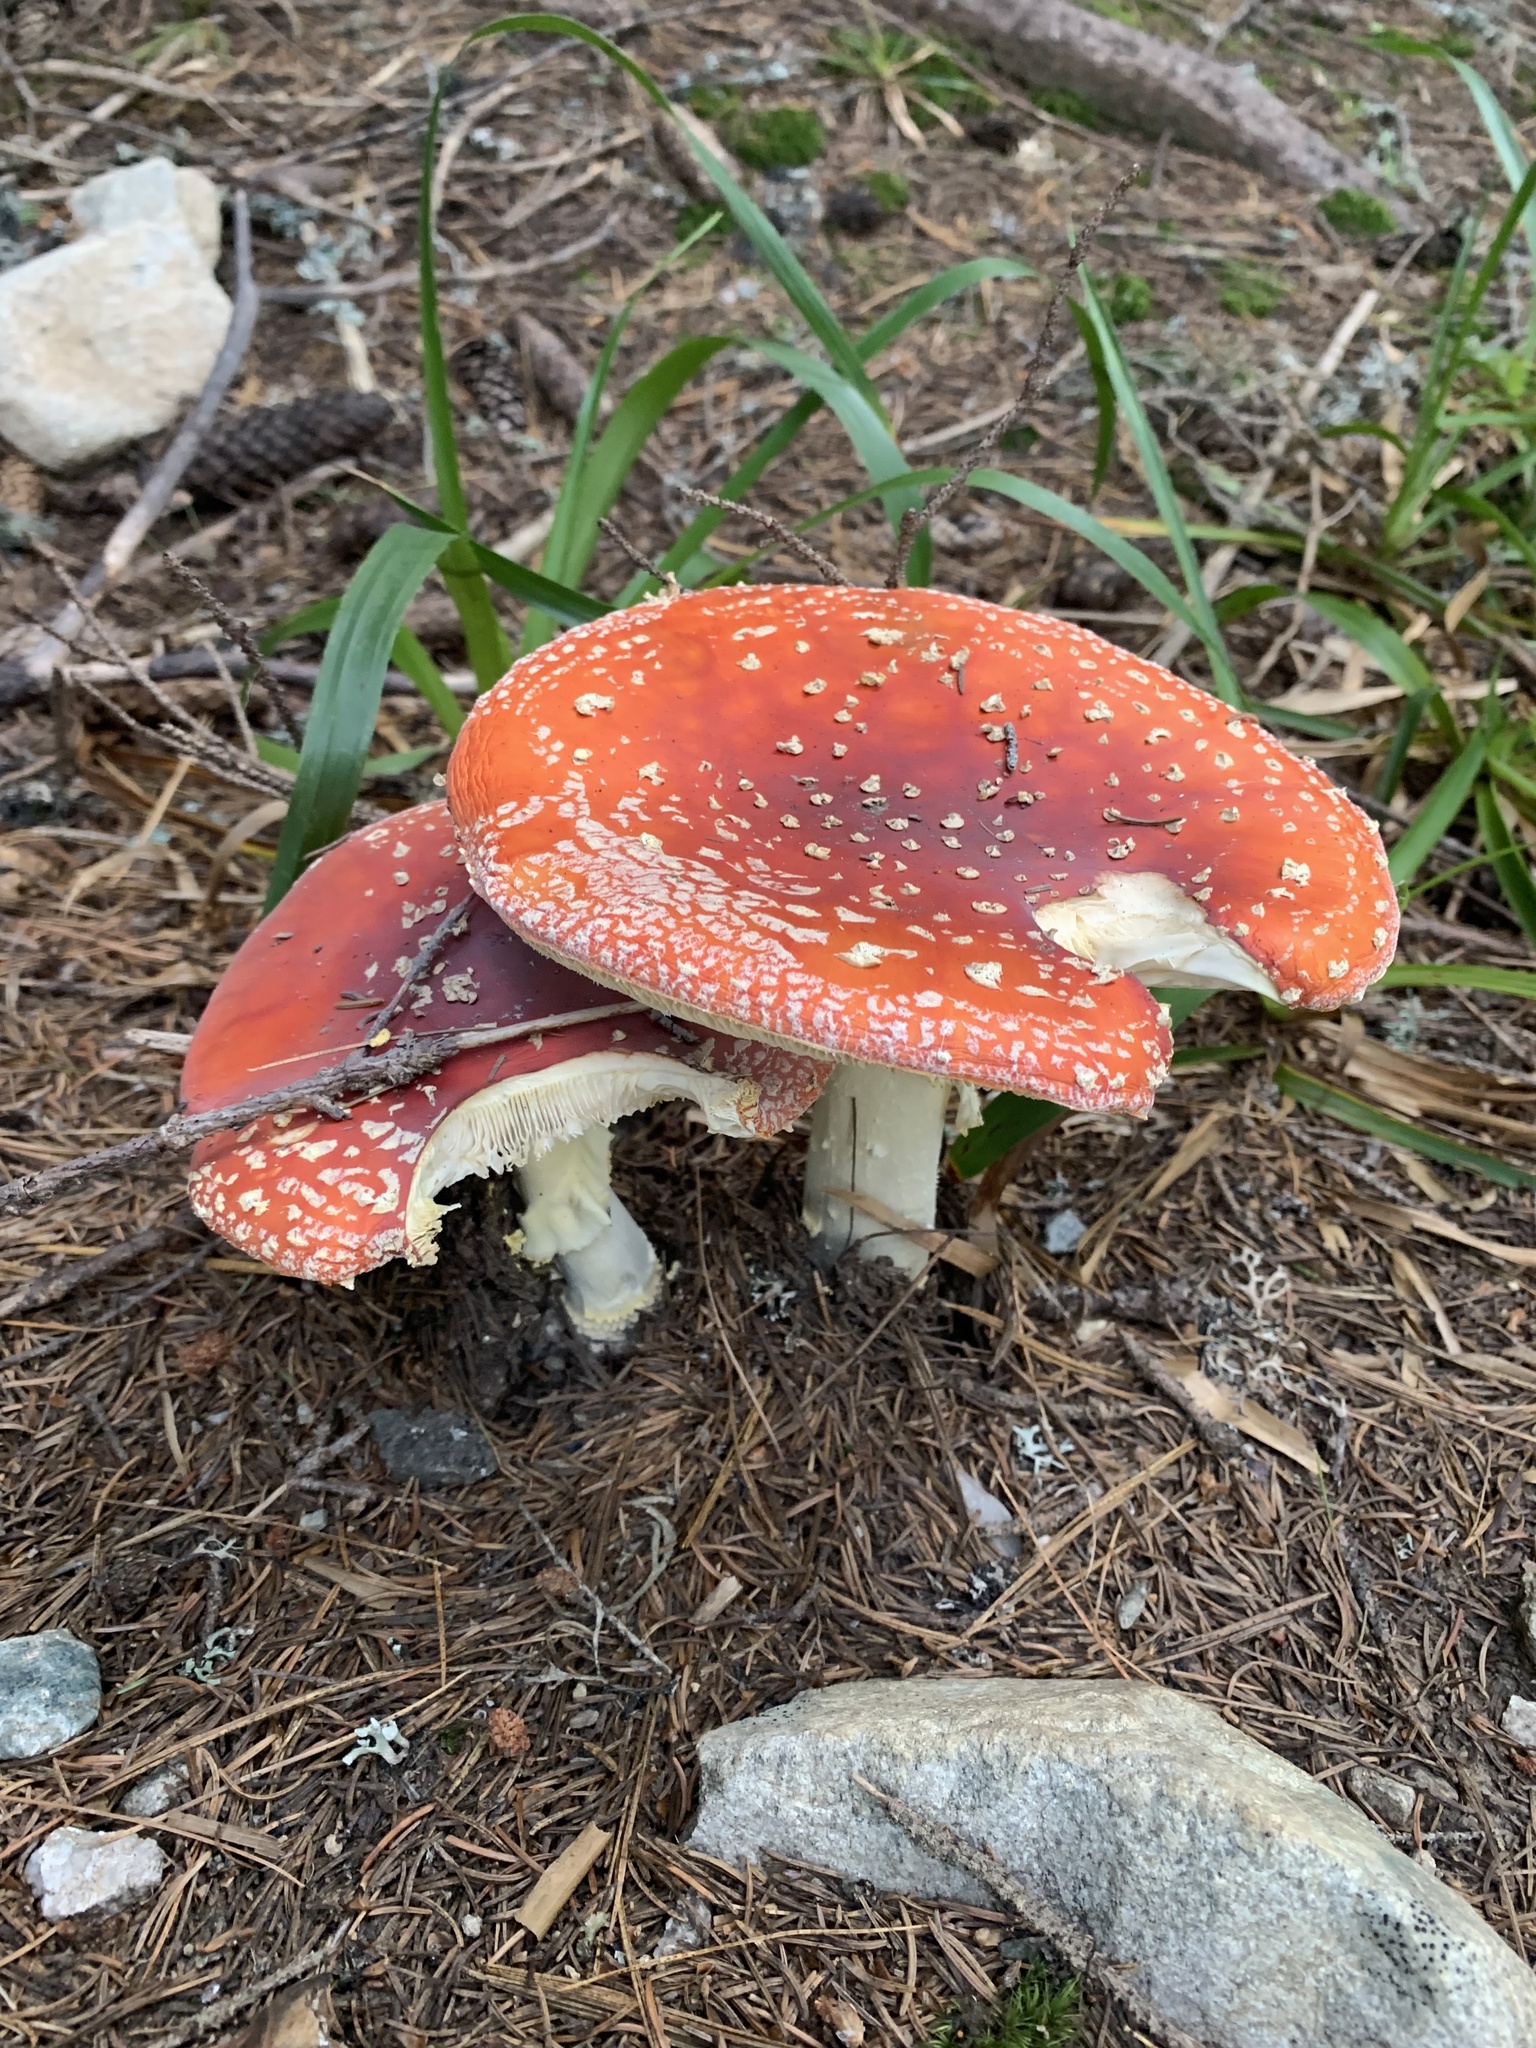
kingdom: Fungi
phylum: Basidiomycota
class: Agaricomycetes
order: Agaricales
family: Amanitaceae
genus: Amanita
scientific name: Amanita muscaria
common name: Fly agaric
